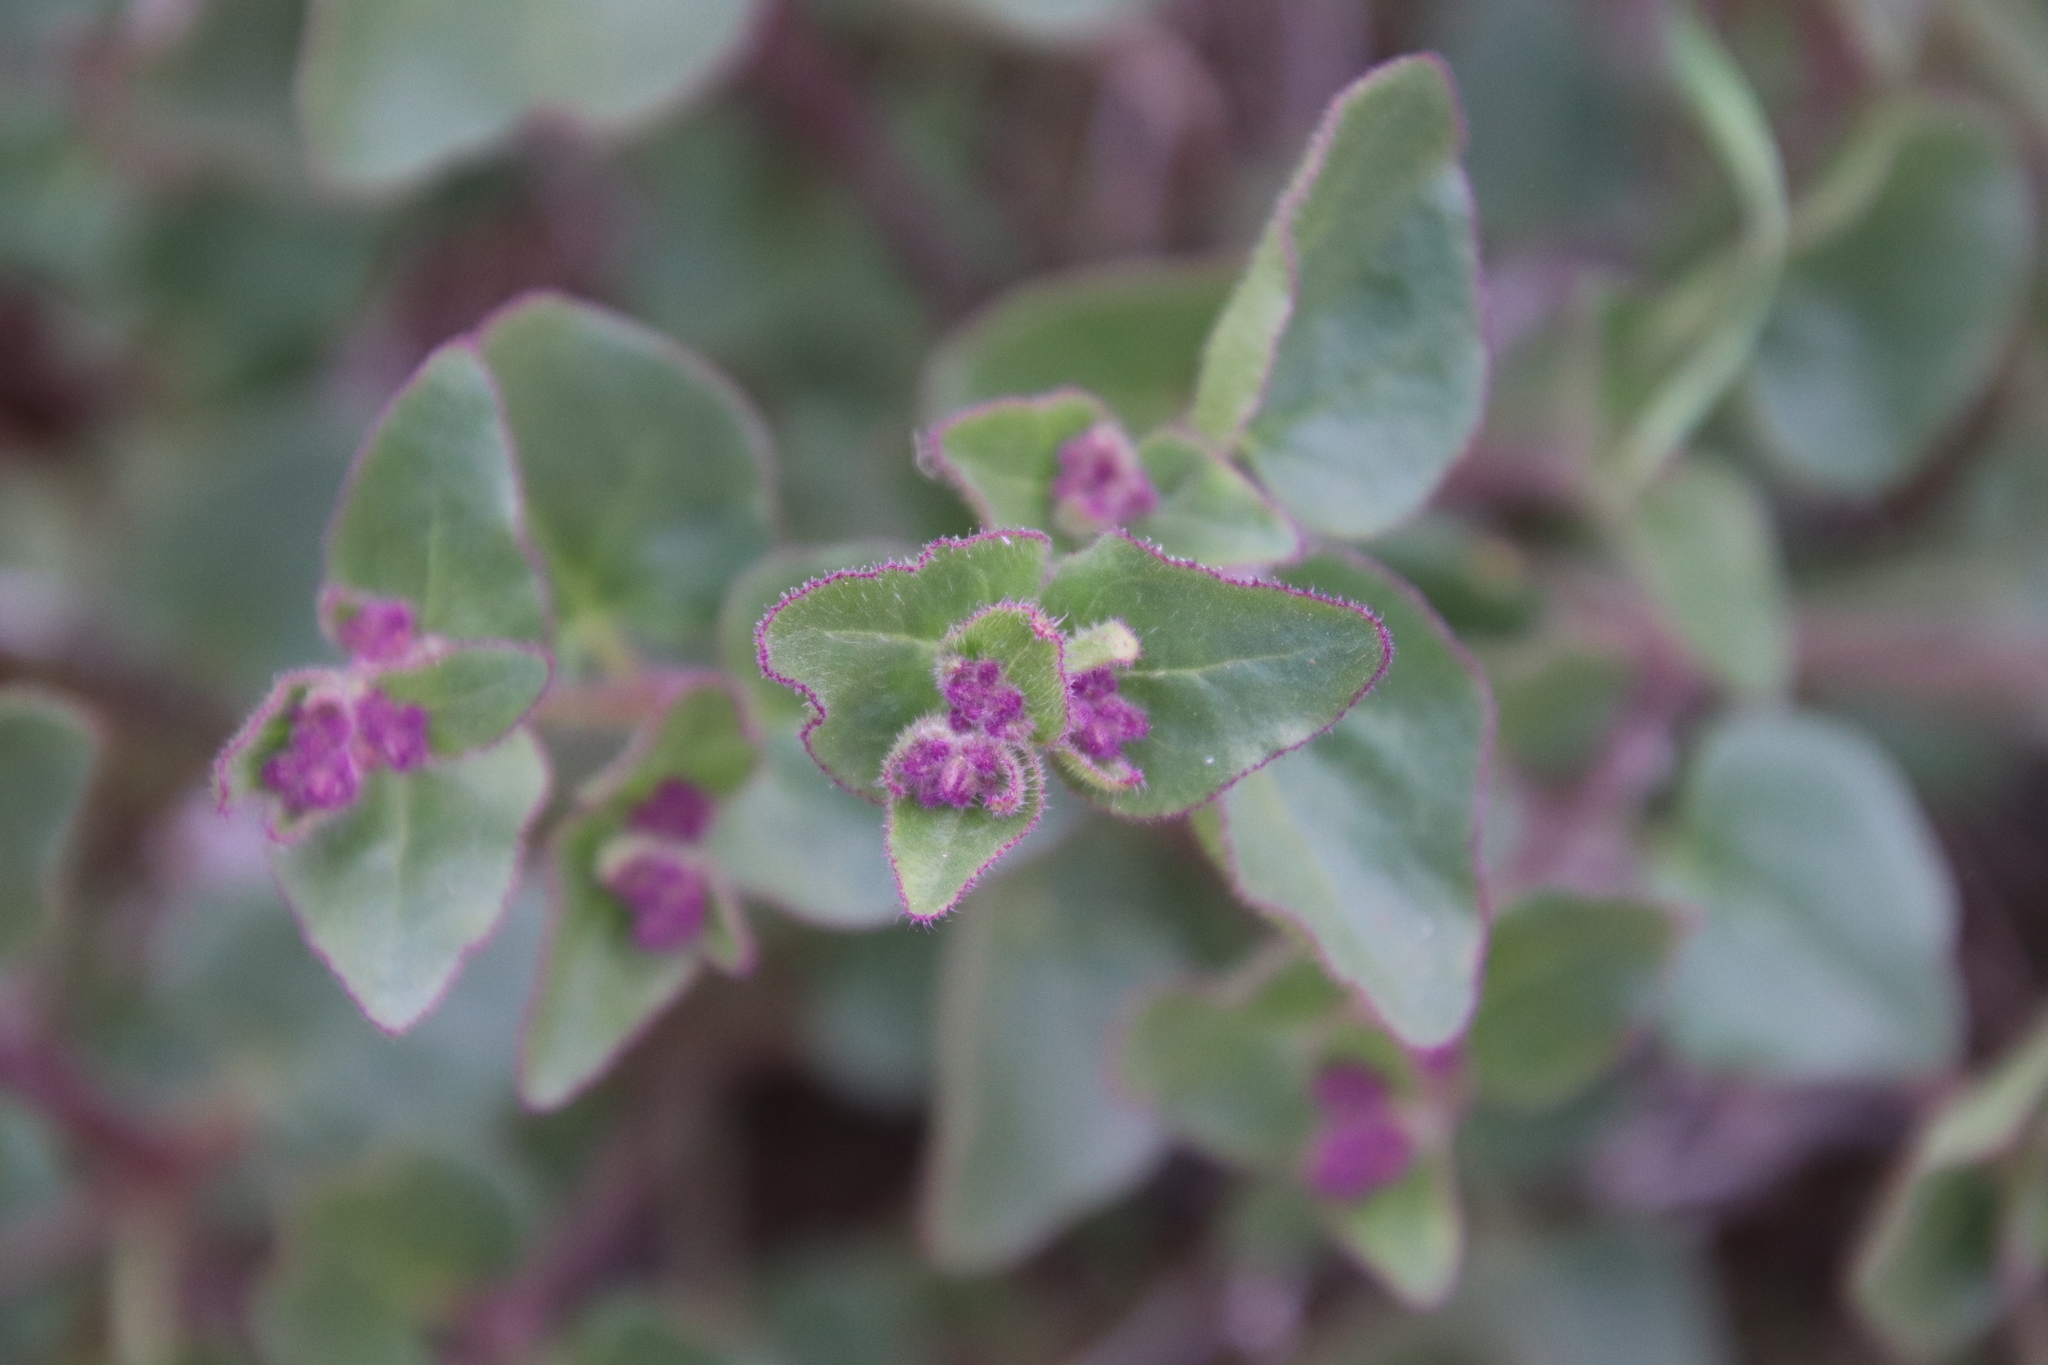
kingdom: Plantae
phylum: Tracheophyta
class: Magnoliopsida
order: Caryophyllales
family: Nyctaginaceae
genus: Mirabilis
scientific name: Mirabilis laevis
